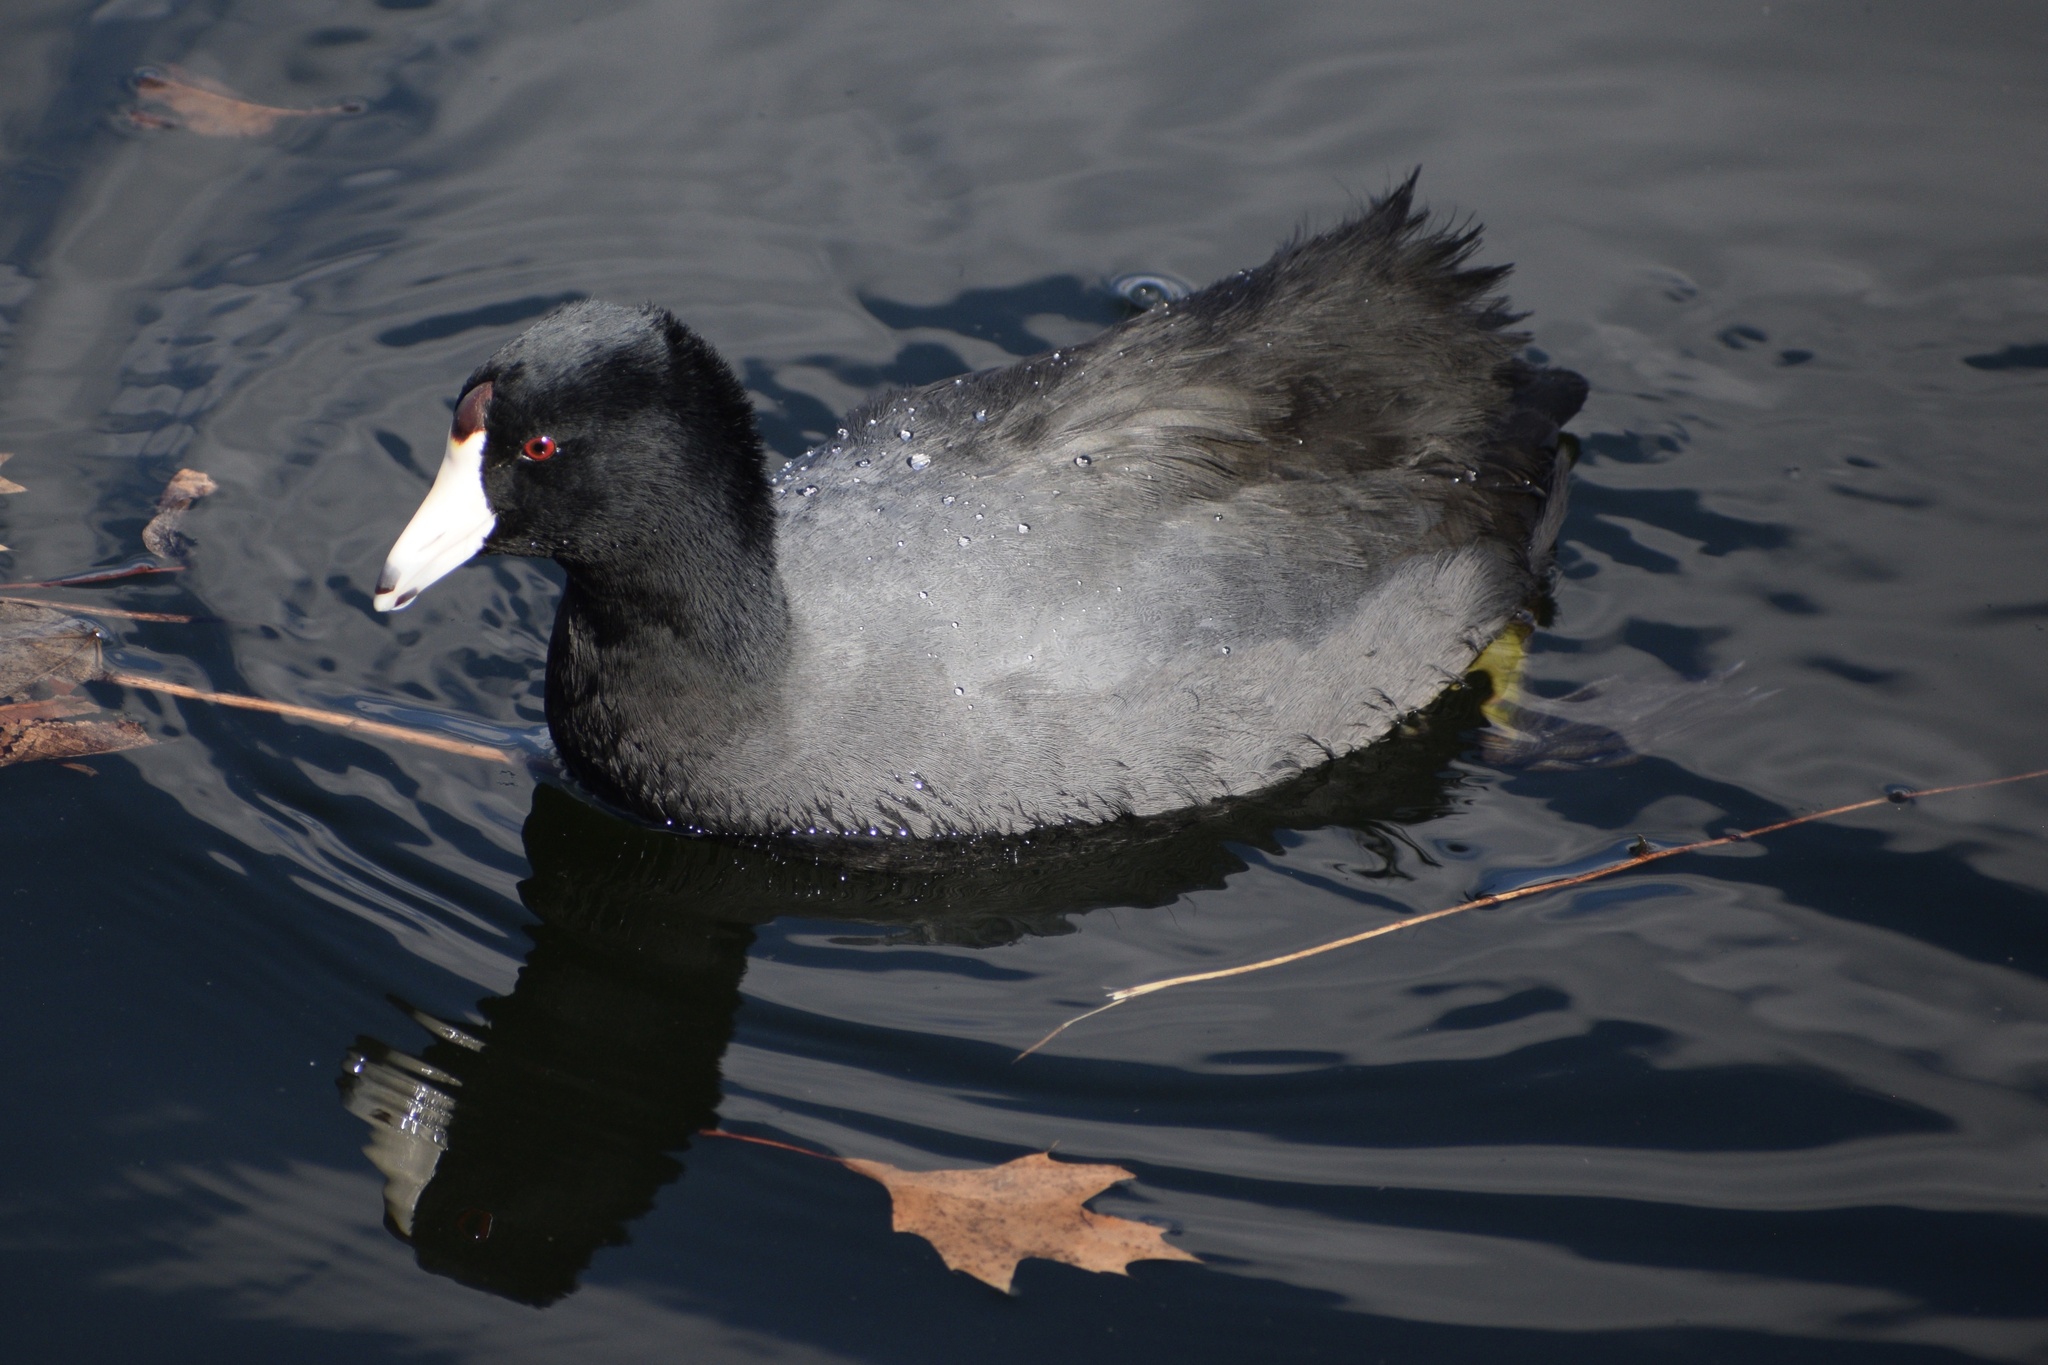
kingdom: Animalia
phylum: Chordata
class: Aves
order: Gruiformes
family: Rallidae
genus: Fulica
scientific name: Fulica americana
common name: American coot
